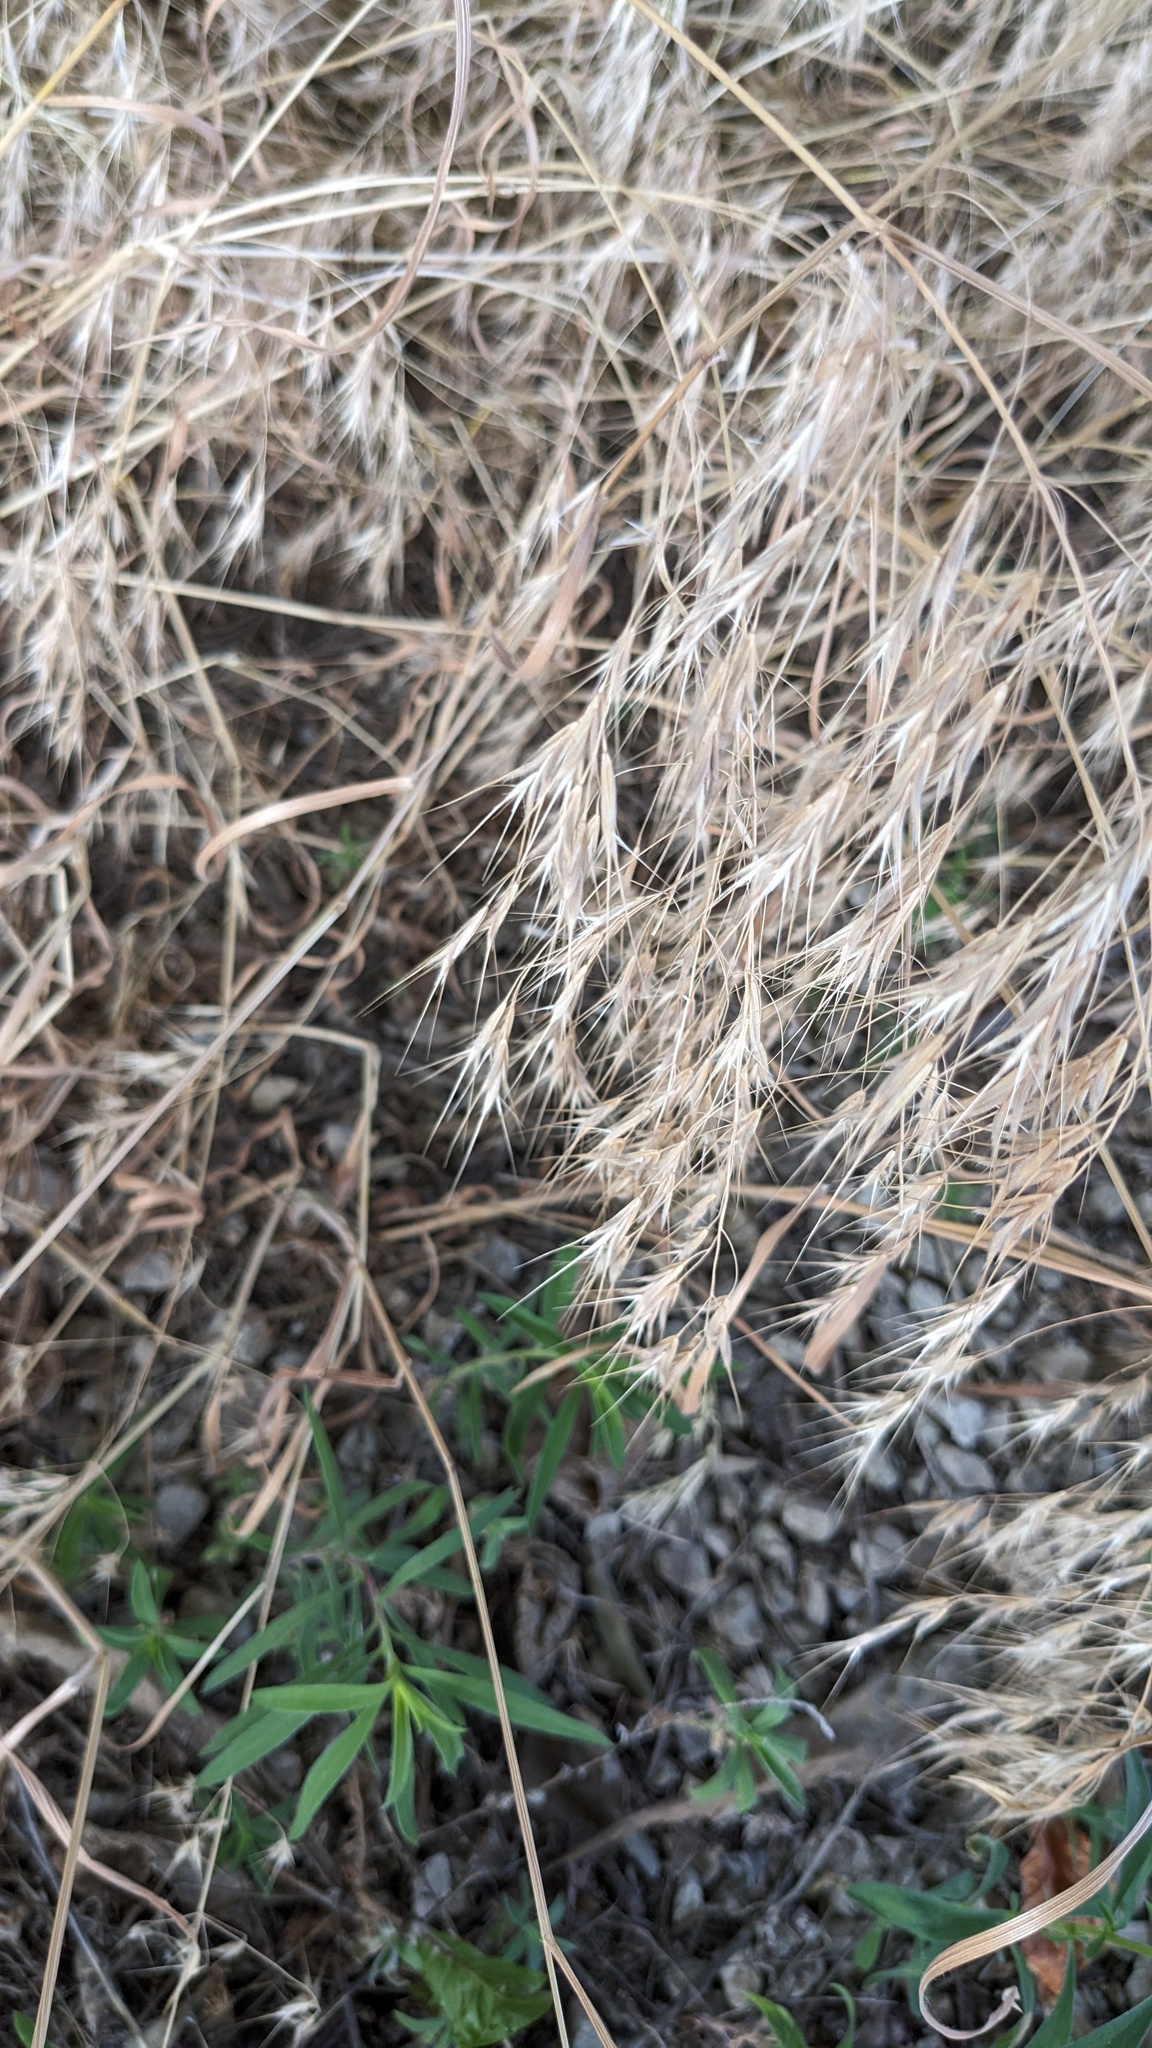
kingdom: Plantae
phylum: Tracheophyta
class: Liliopsida
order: Poales
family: Poaceae
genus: Bromus
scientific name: Bromus tectorum
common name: Cheatgrass
